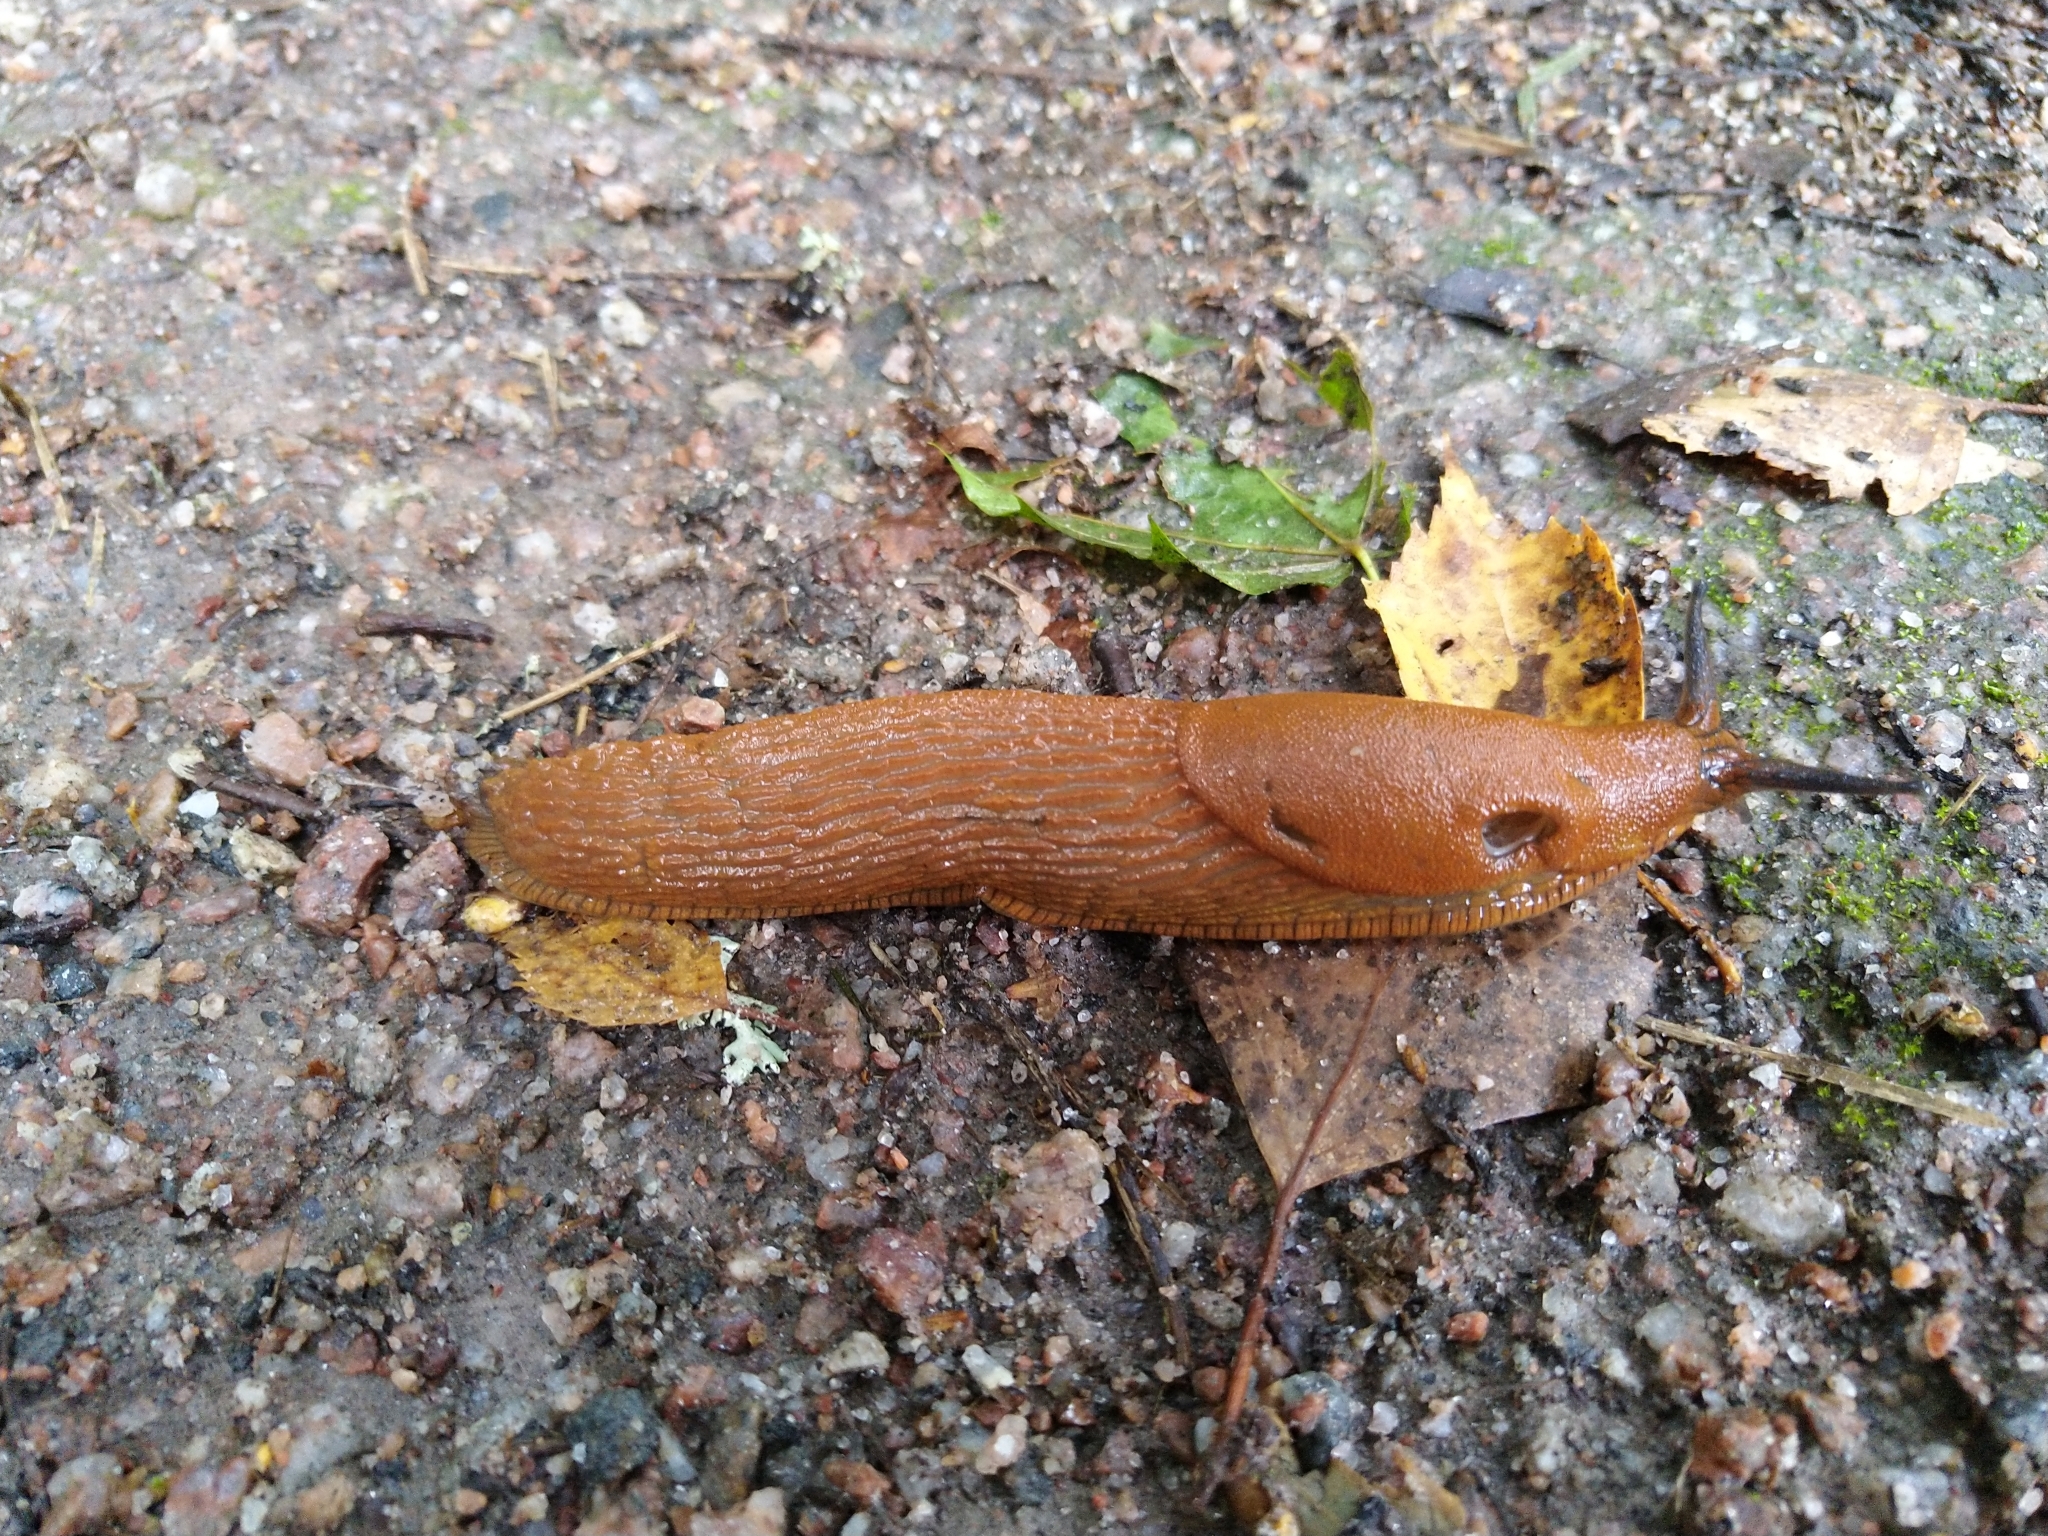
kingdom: Animalia
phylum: Mollusca
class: Gastropoda
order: Stylommatophora
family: Arionidae
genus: Arion
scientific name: Arion vulgaris
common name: Lusitanian slug
